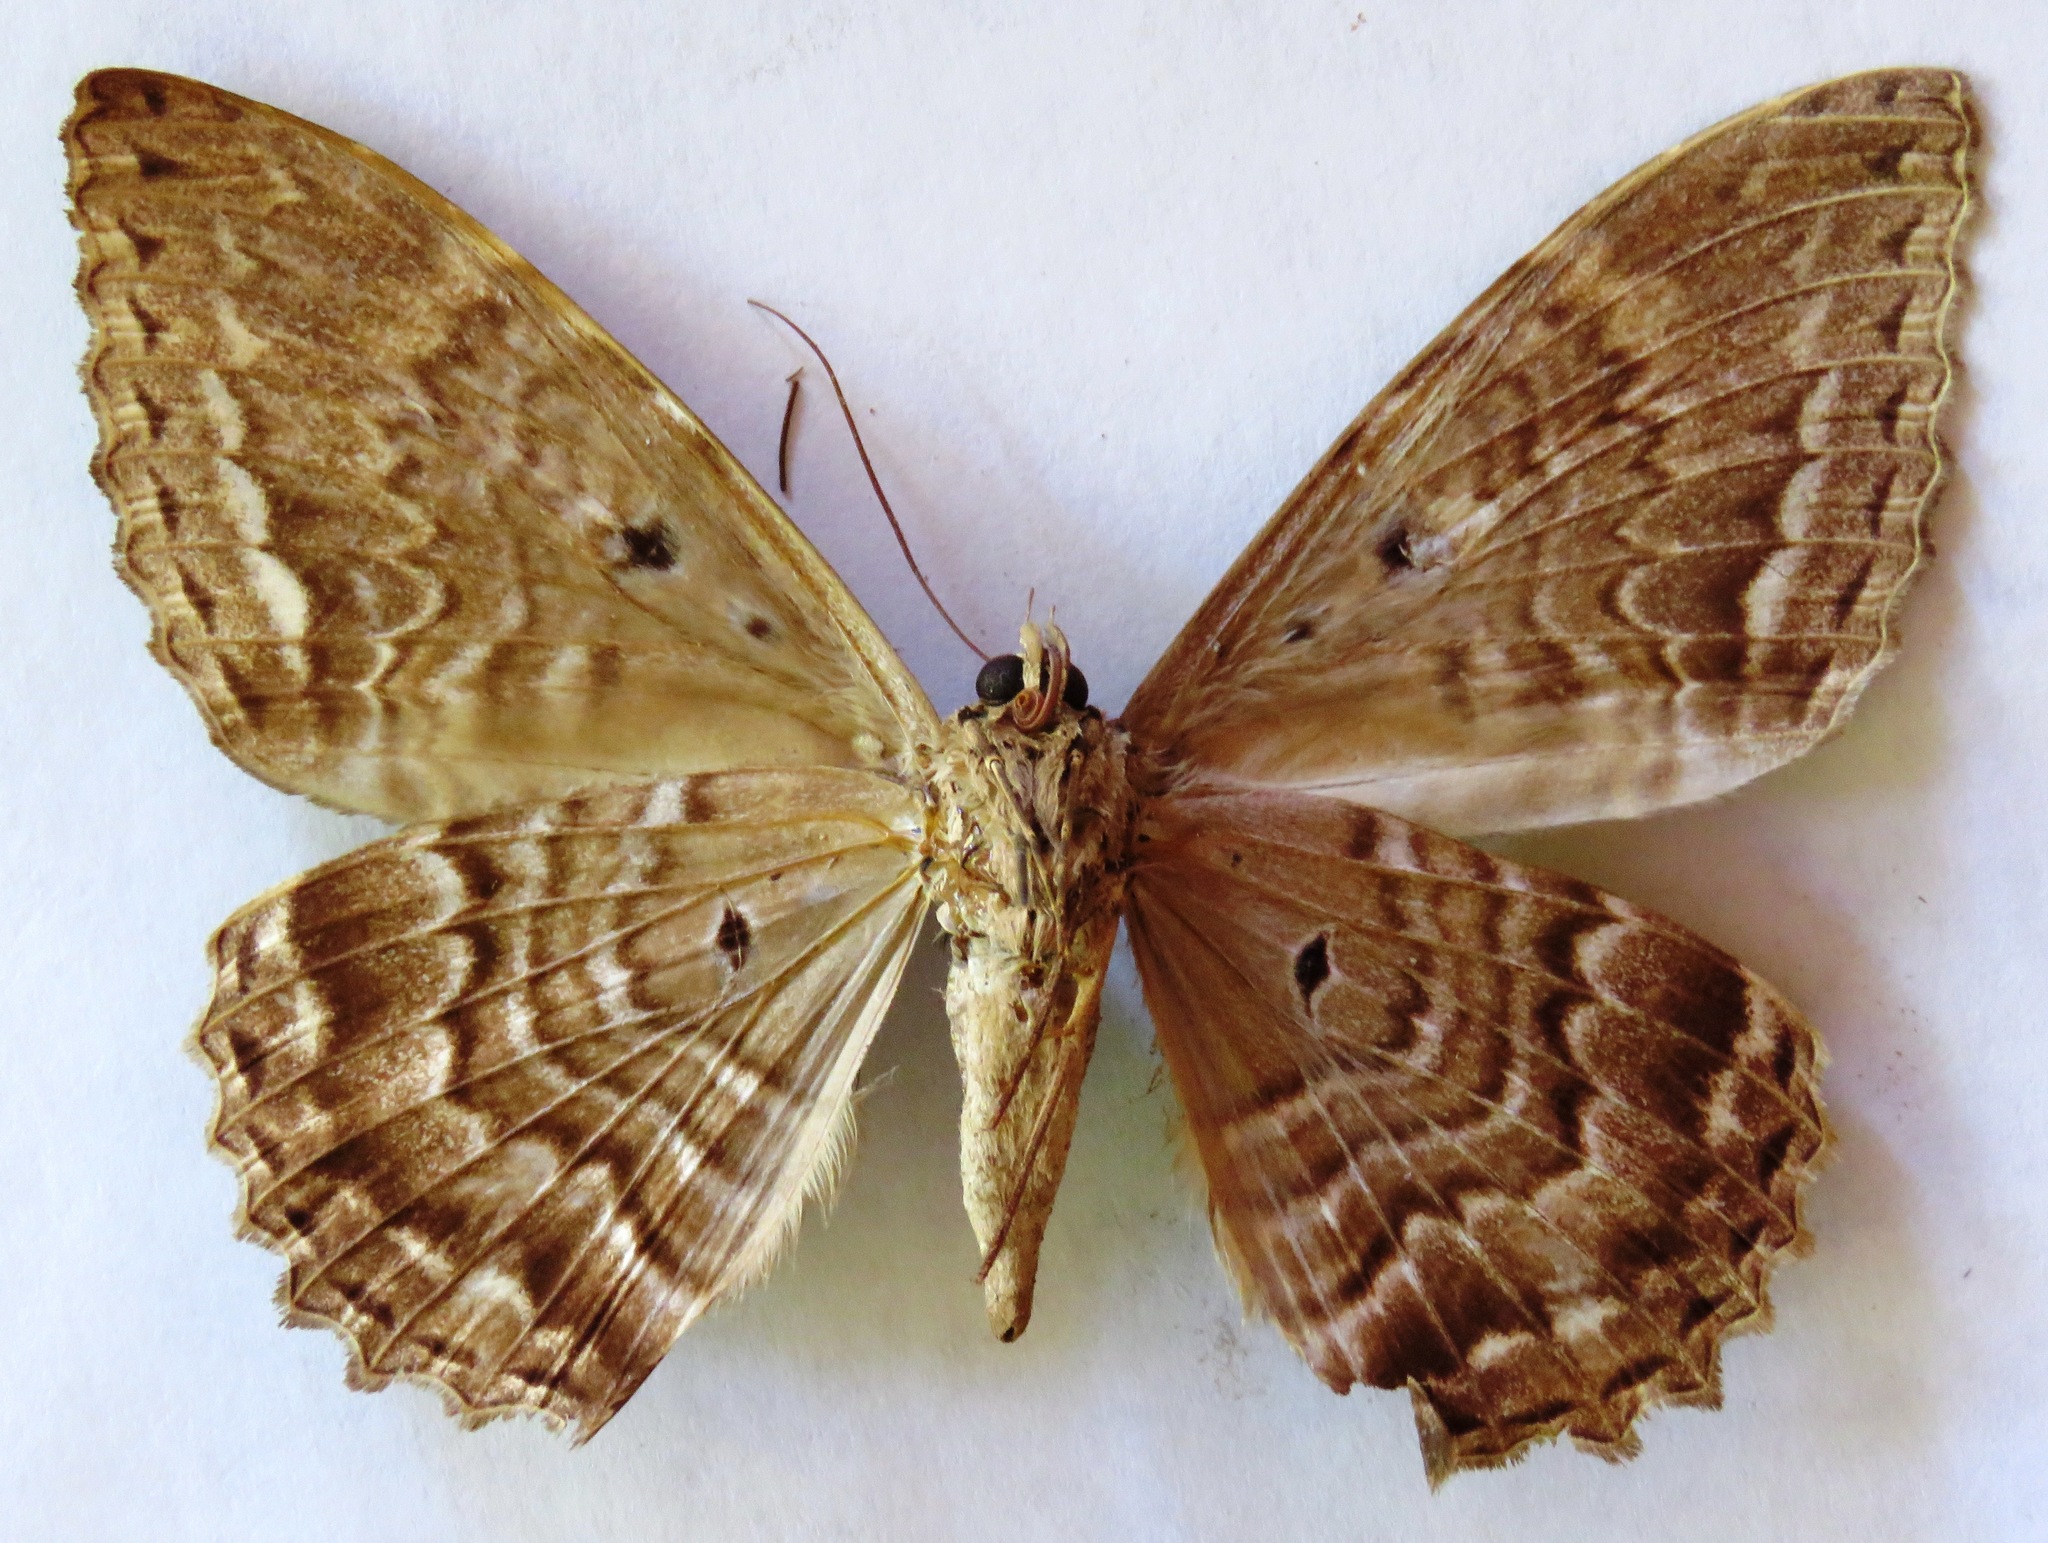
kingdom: Animalia
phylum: Arthropoda
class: Insecta
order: Lepidoptera
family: Erebidae
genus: Feigeria
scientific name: Feigeria
